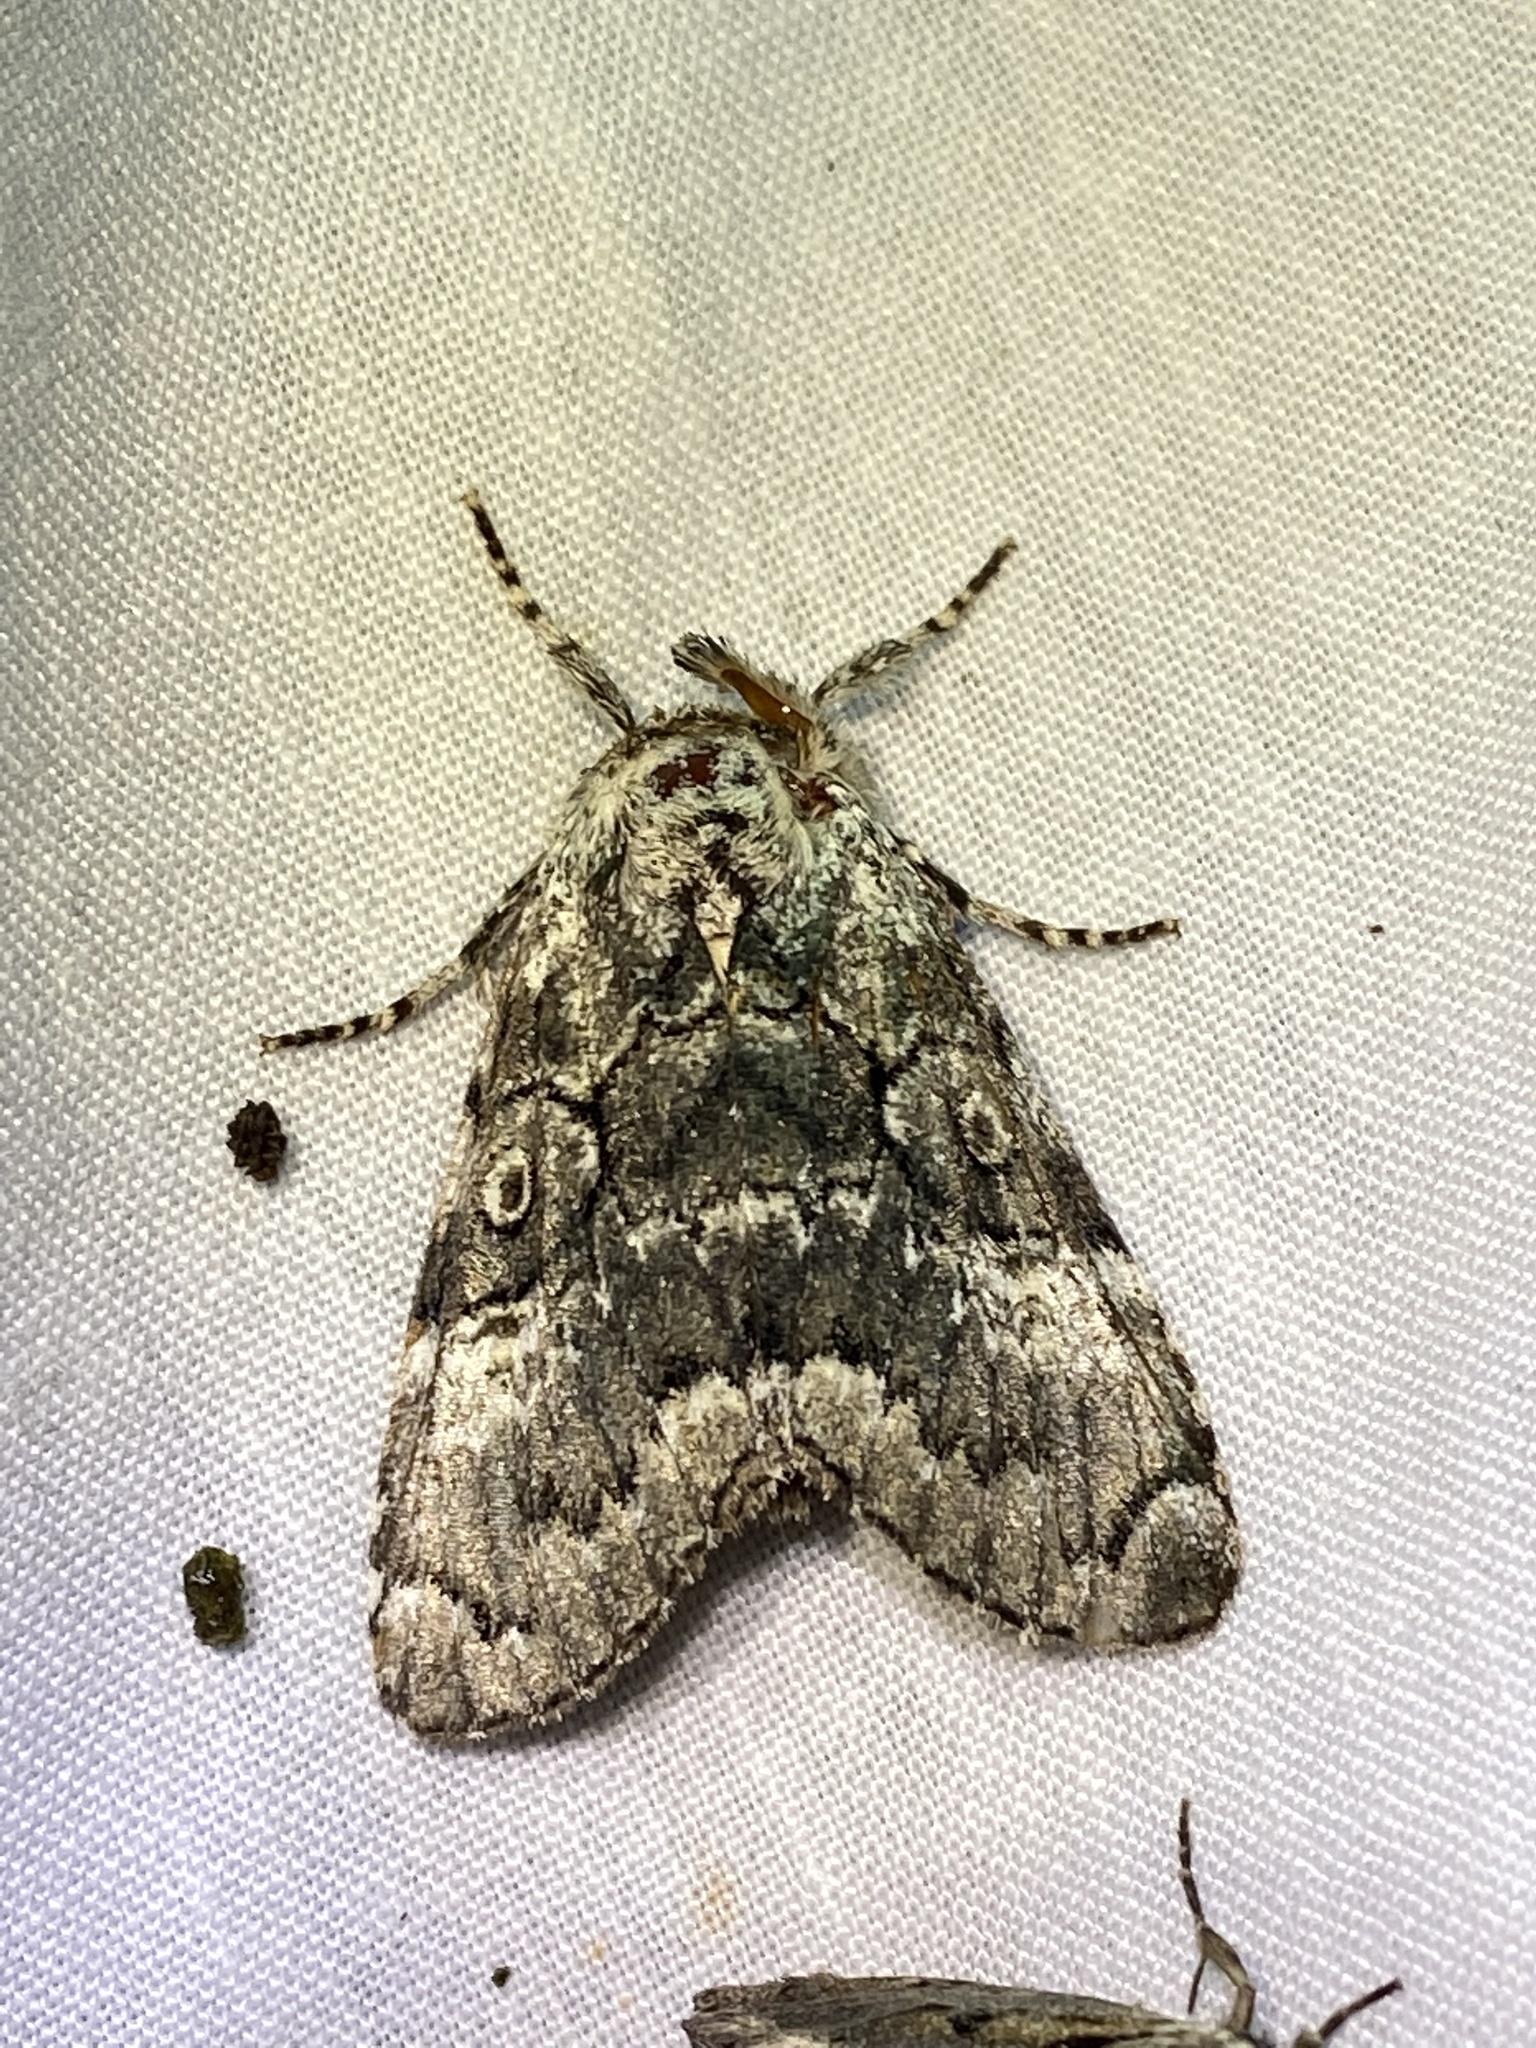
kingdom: Animalia
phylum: Arthropoda
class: Insecta
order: Lepidoptera
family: Noctuidae
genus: Charadra
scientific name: Charadra deridens
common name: Marbled tuffet
